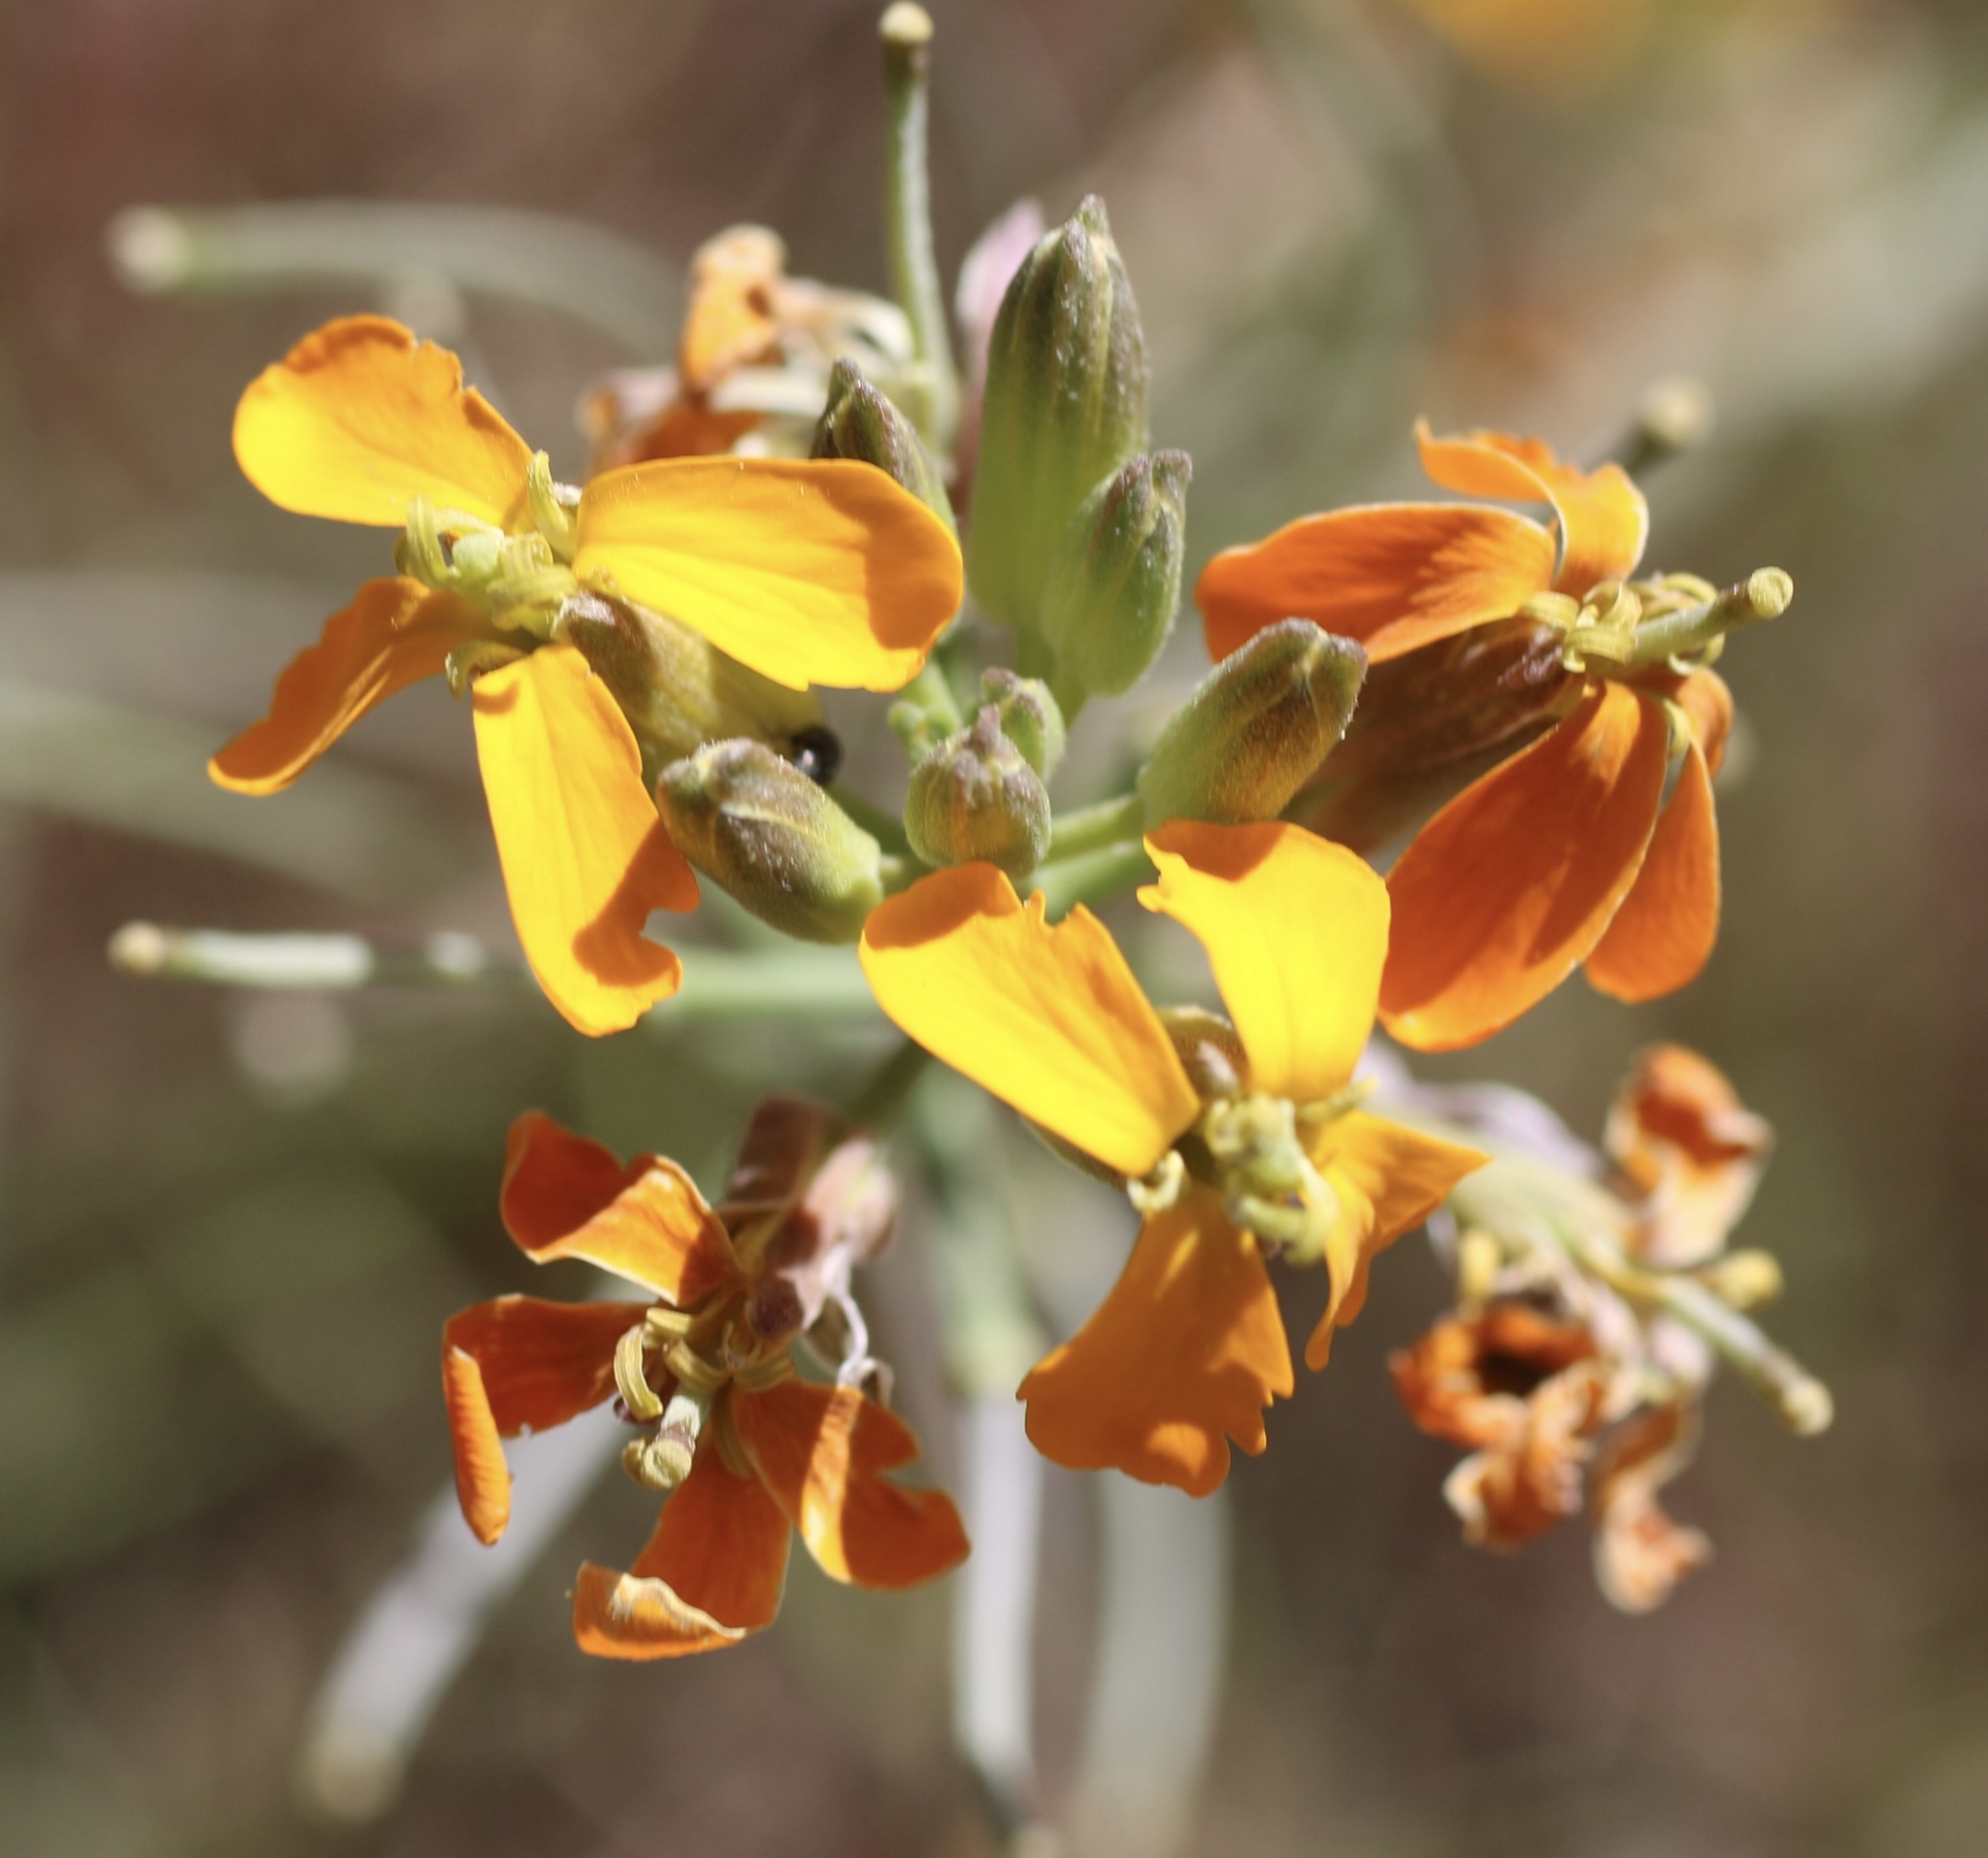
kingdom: Plantae
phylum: Tracheophyta
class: Magnoliopsida
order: Brassicales
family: Brassicaceae
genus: Erysimum
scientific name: Erysimum capitatum
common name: Western wallflower
